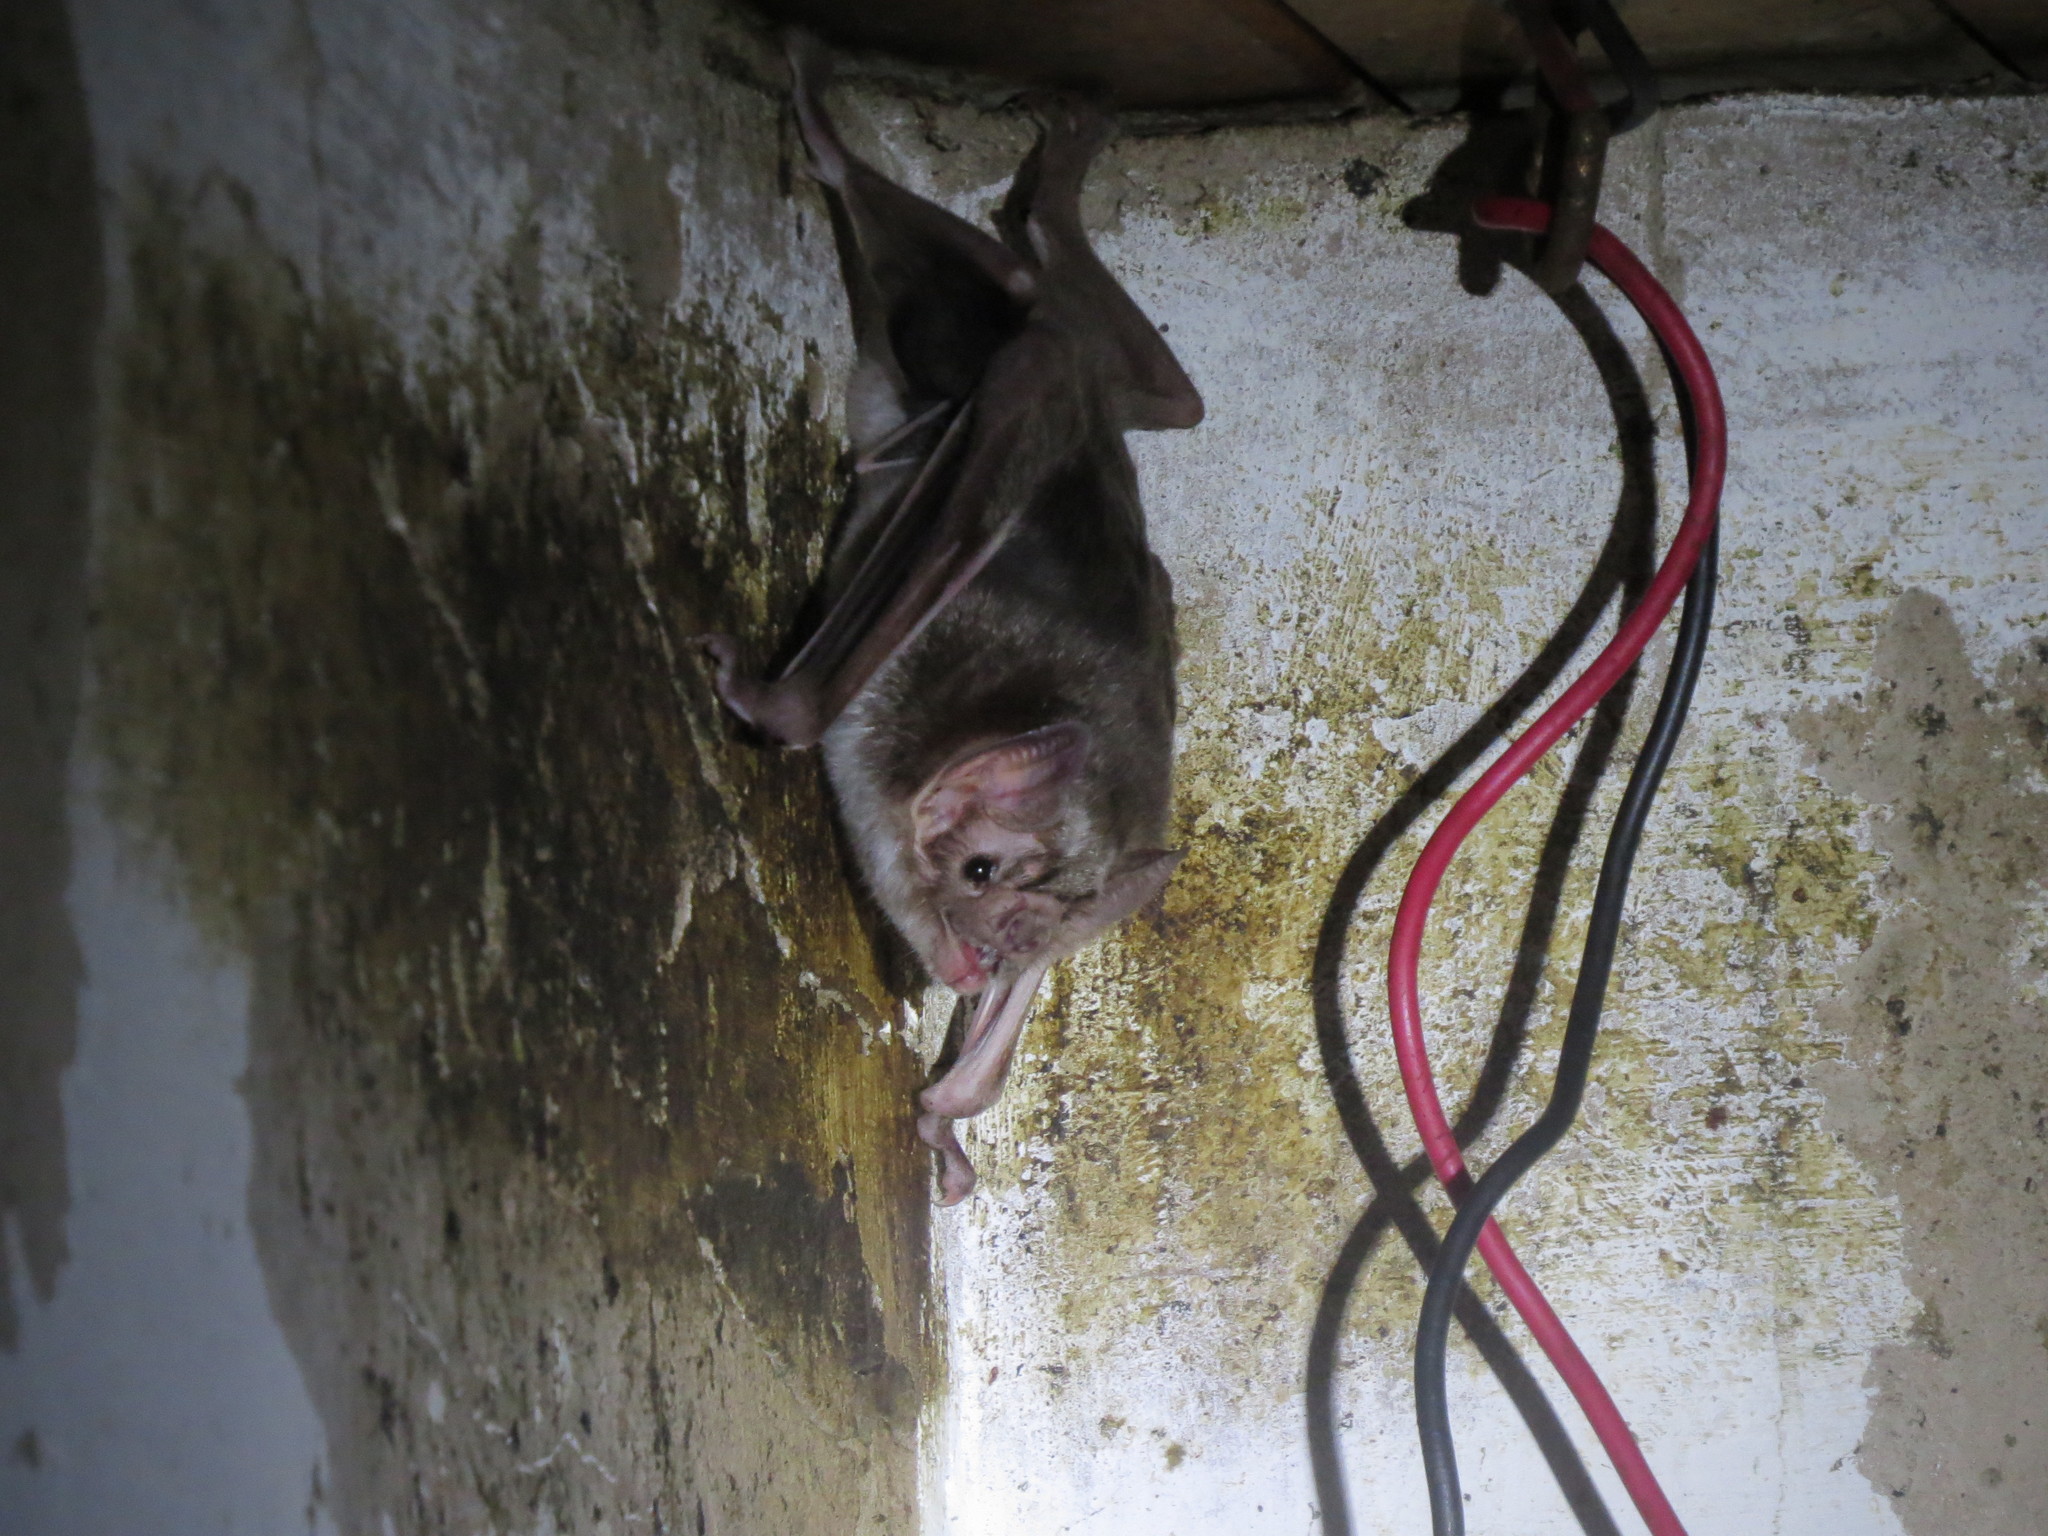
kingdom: Animalia
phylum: Chordata
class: Mammalia
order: Chiroptera
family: Phyllostomidae
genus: Desmodus
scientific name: Desmodus rotundus
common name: Common vampire bat
